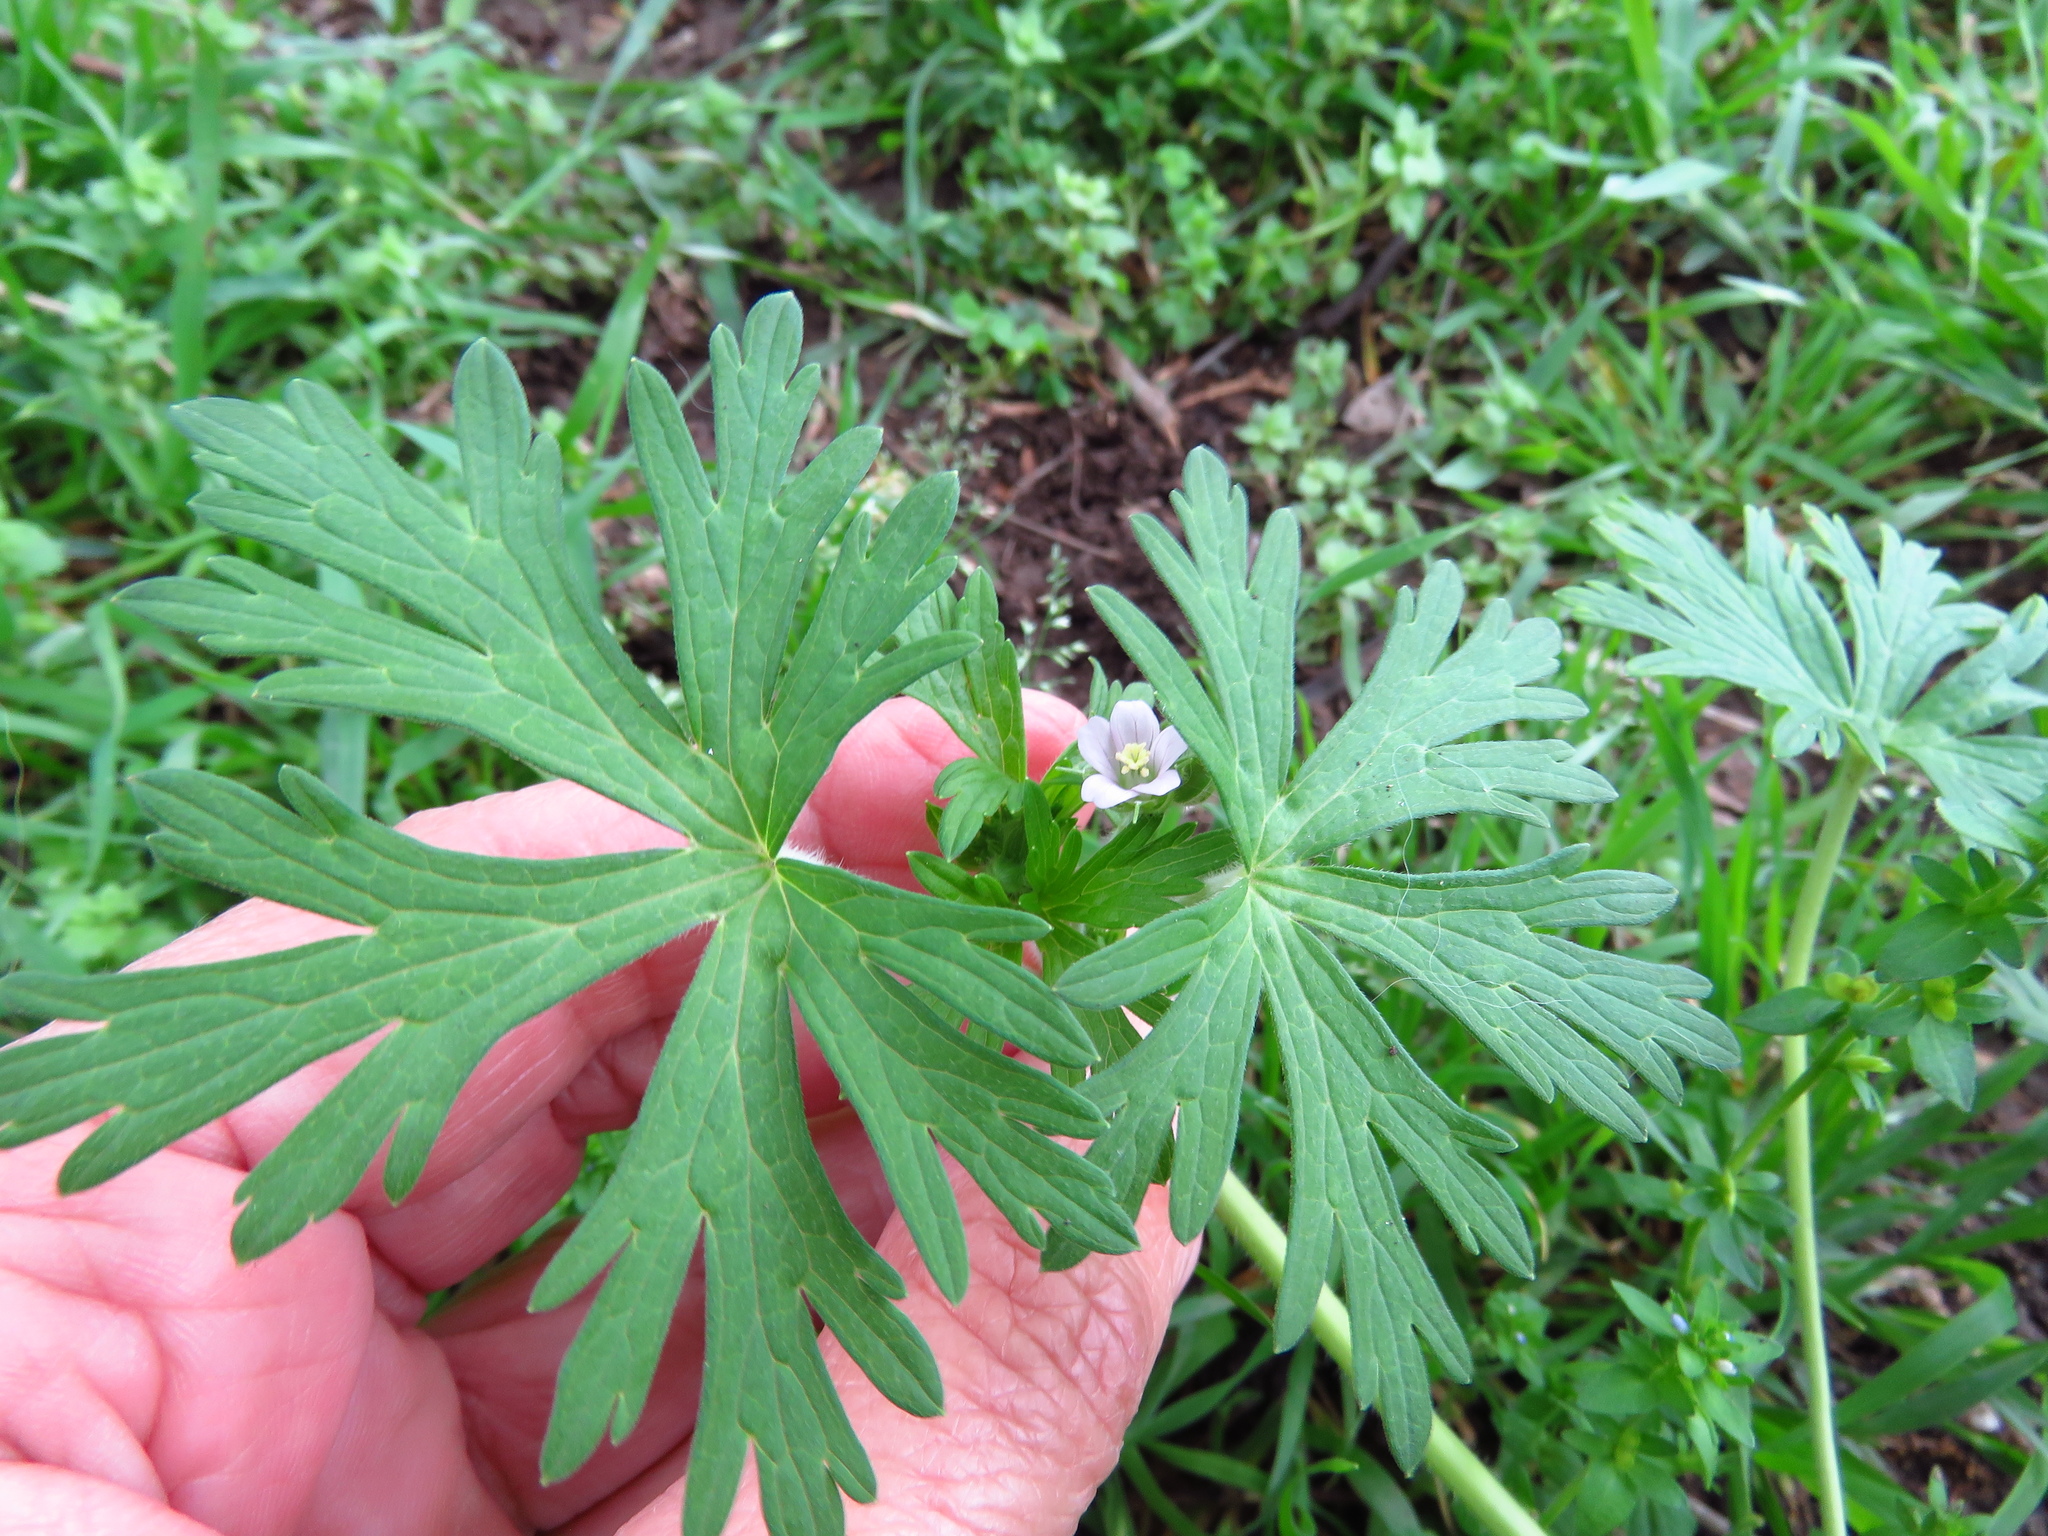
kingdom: Plantae
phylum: Tracheophyta
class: Magnoliopsida
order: Geraniales
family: Geraniaceae
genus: Geranium
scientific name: Geranium carolinianum
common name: Carolina crane's-bill
